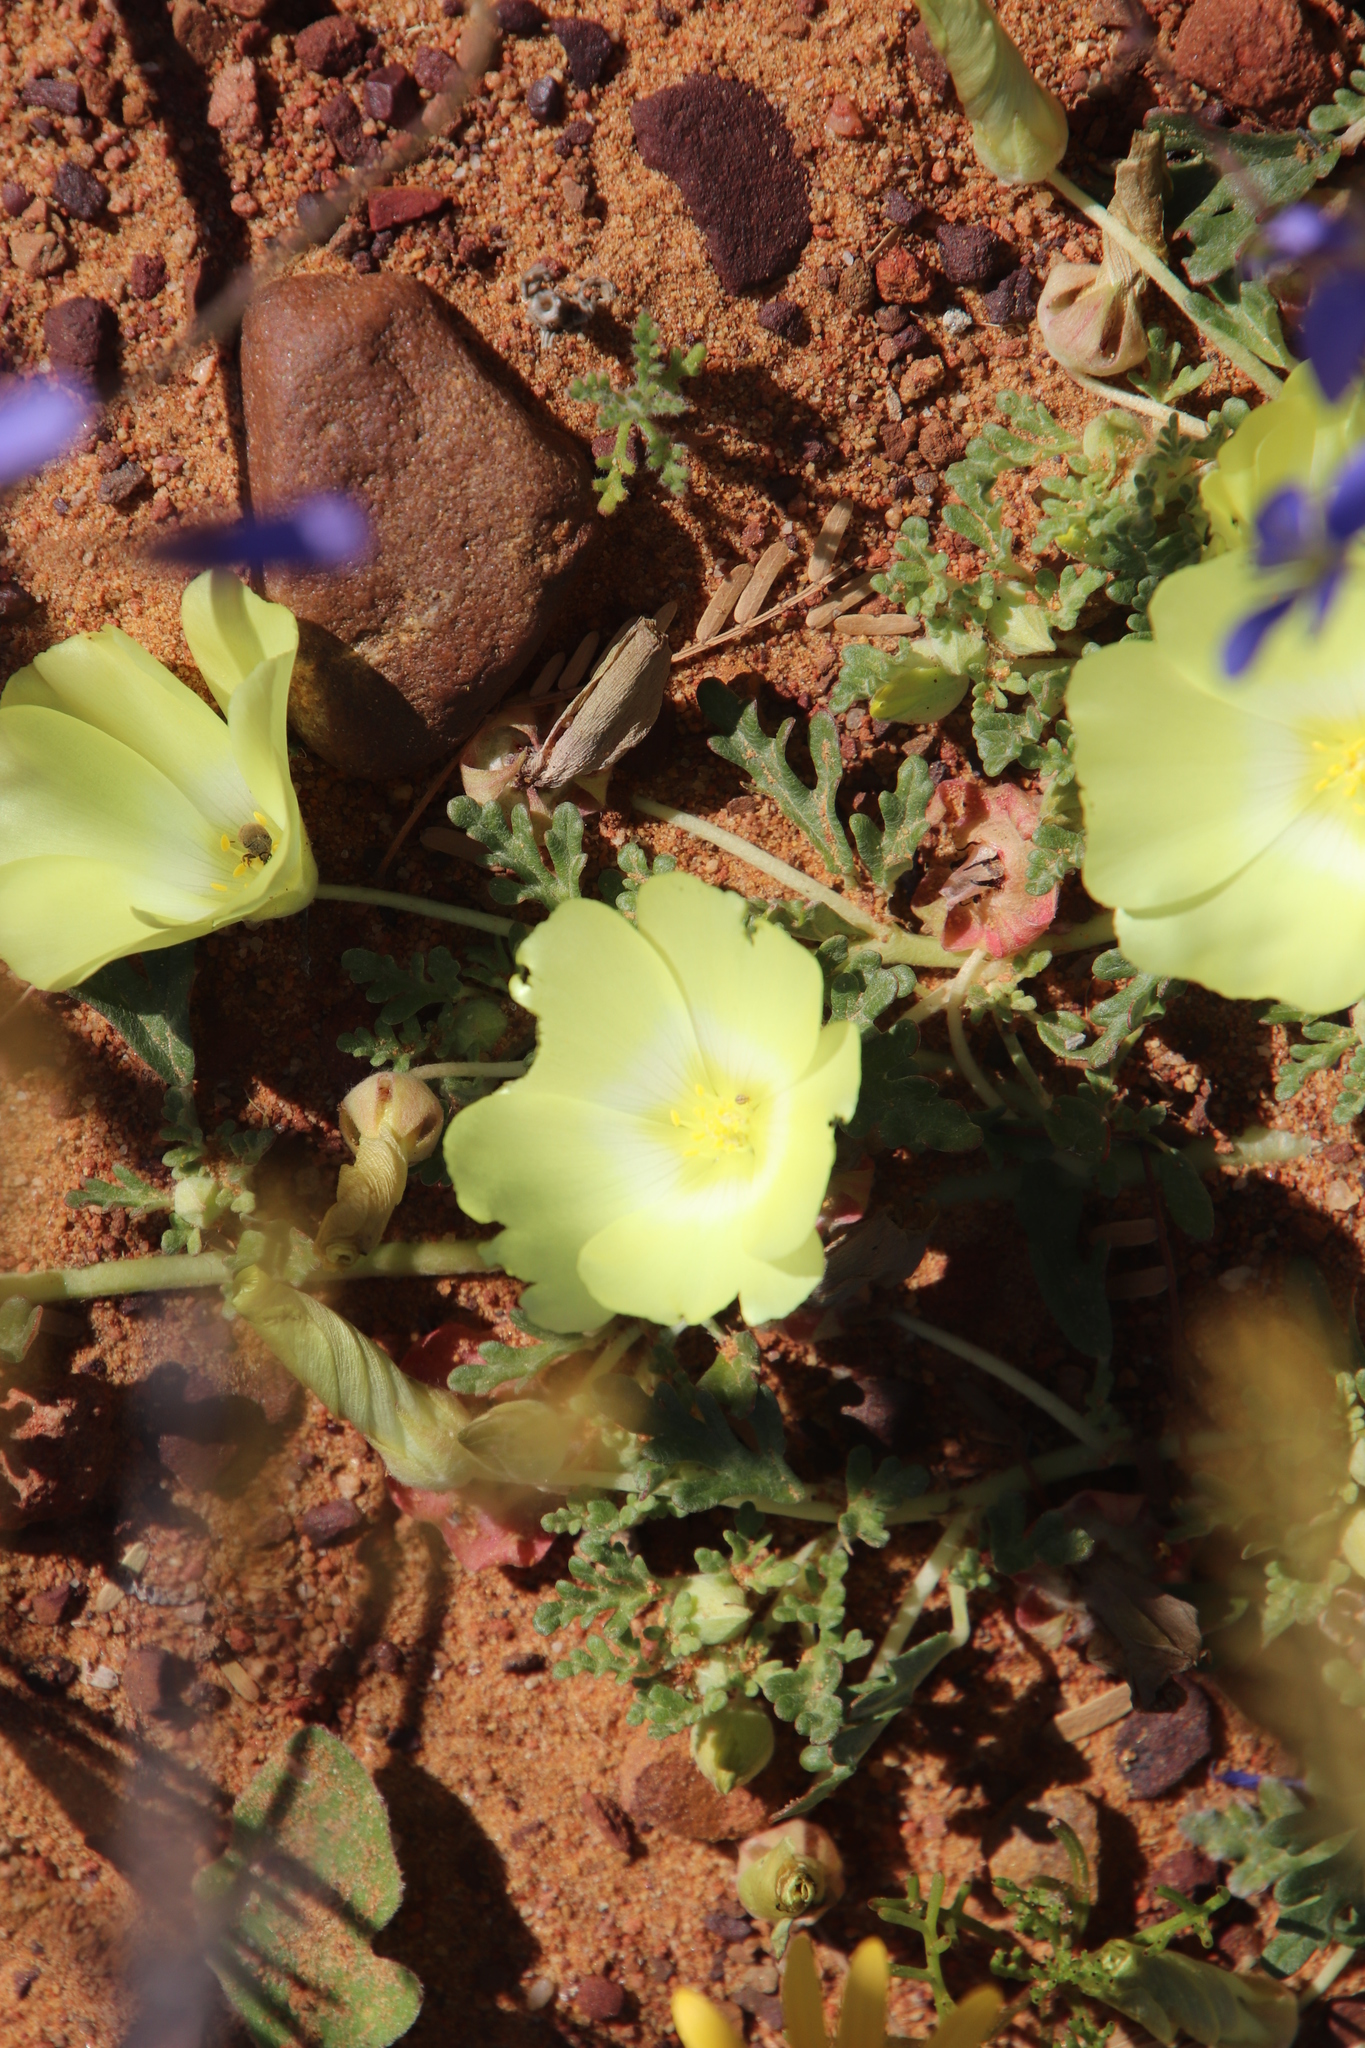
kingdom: Plantae
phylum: Tracheophyta
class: Magnoliopsida
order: Malvales
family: Neuradaceae
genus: Grielum
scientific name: Grielum humifusum
